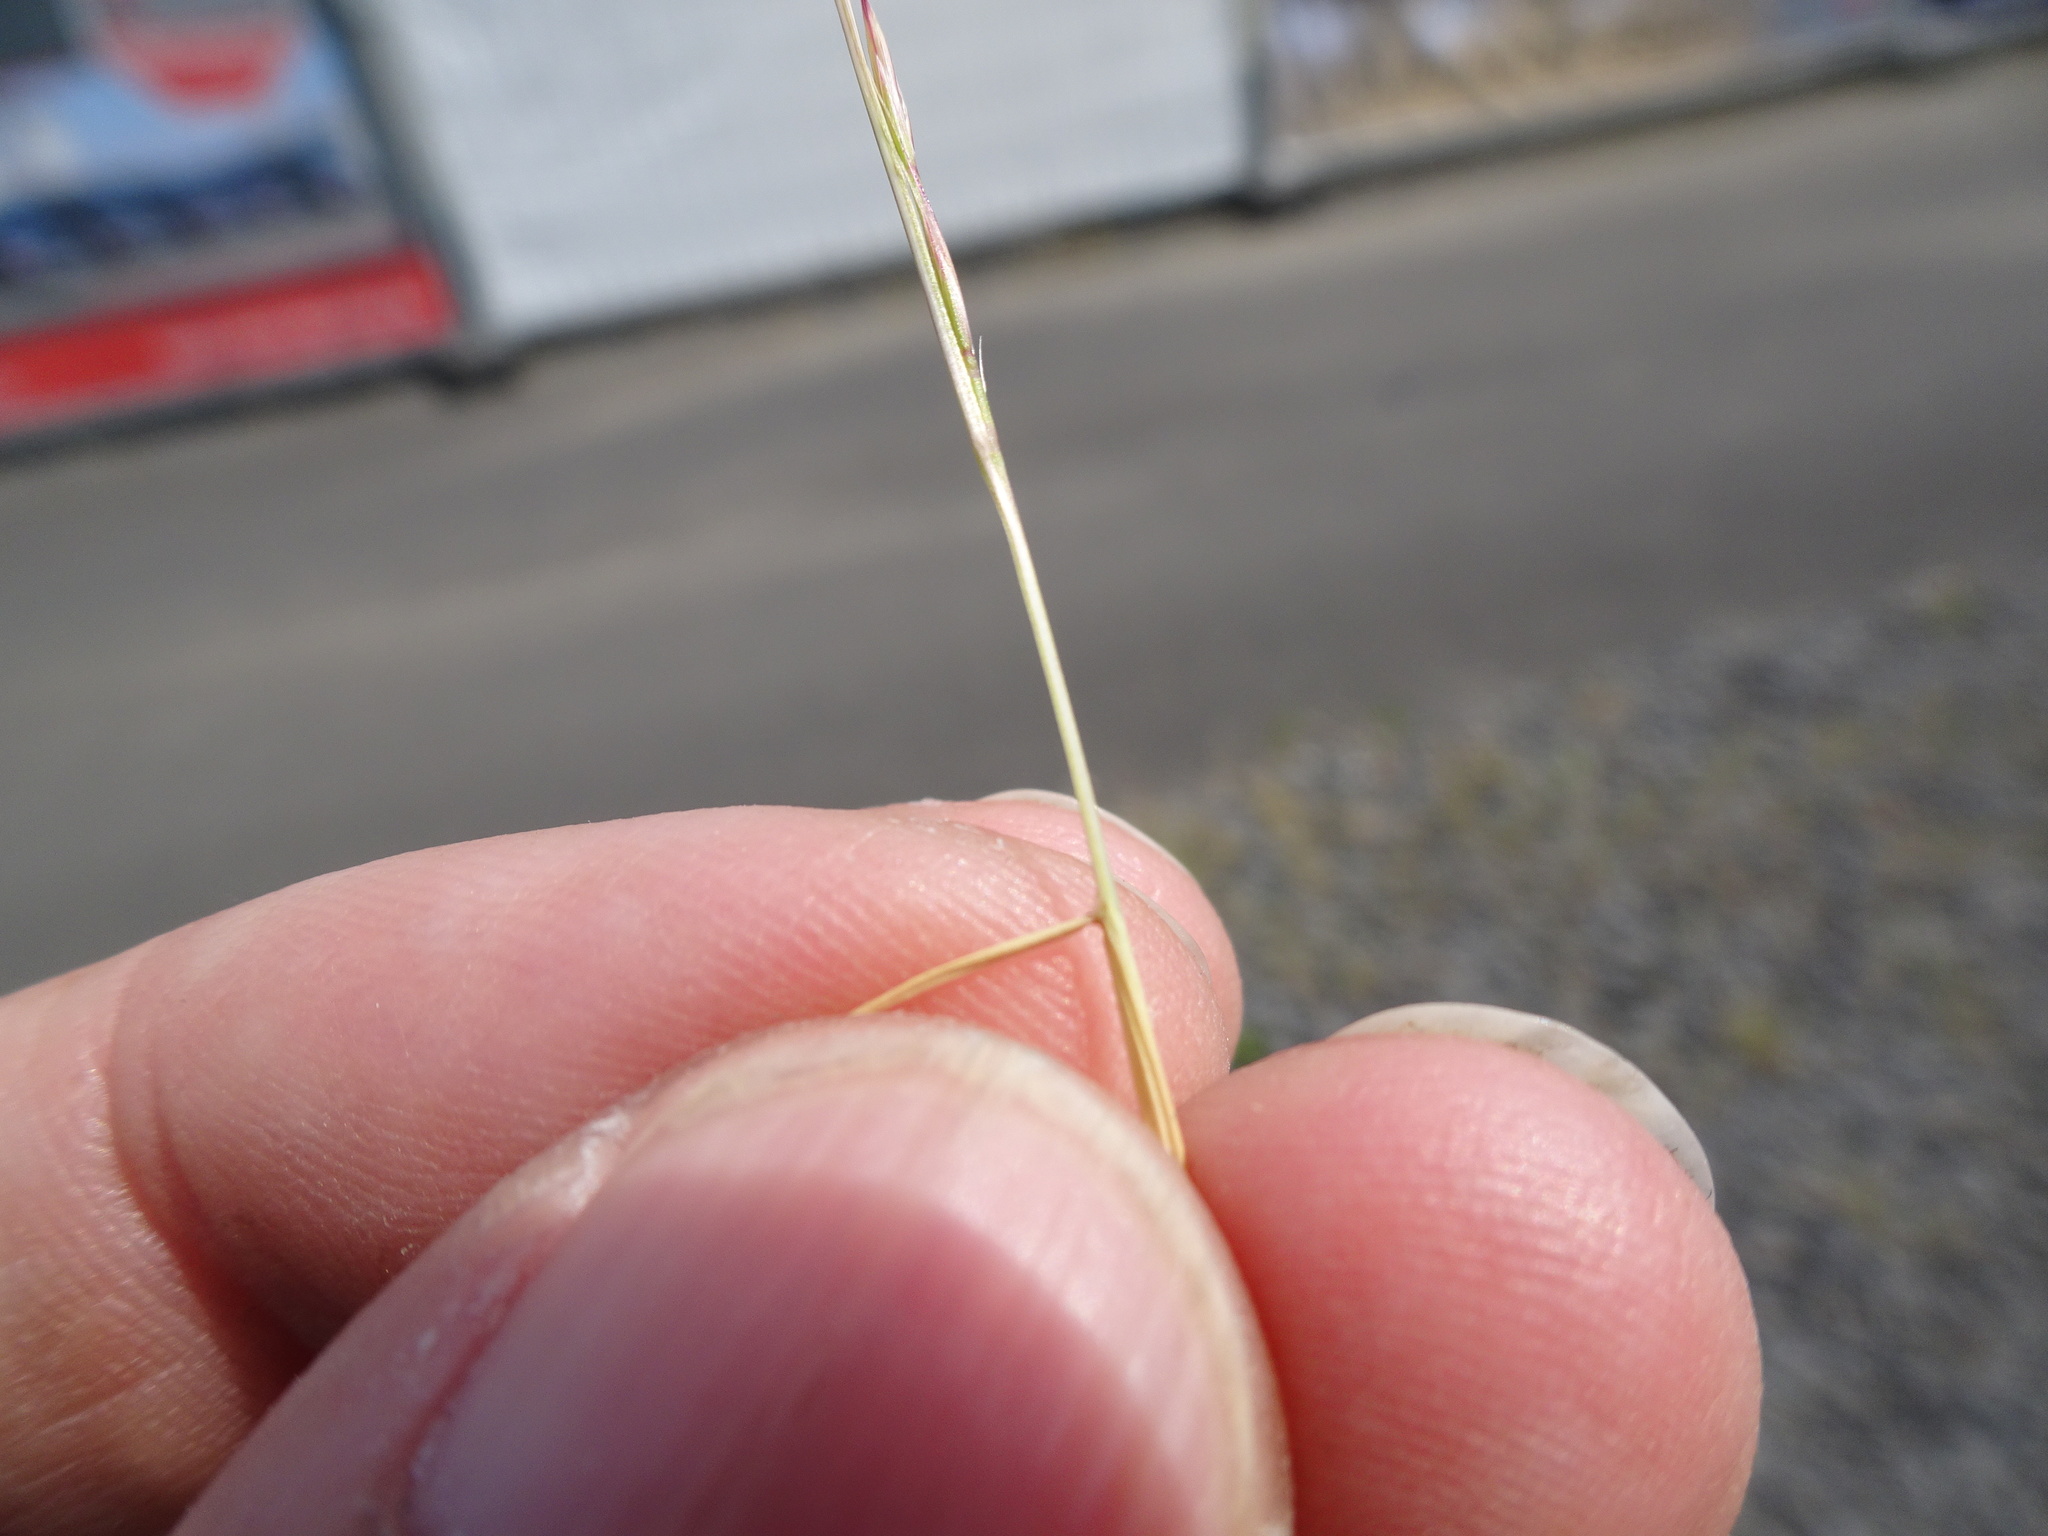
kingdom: Plantae
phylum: Tracheophyta
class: Liliopsida
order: Poales
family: Poaceae
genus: Festuca
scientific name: Festuca myuros
